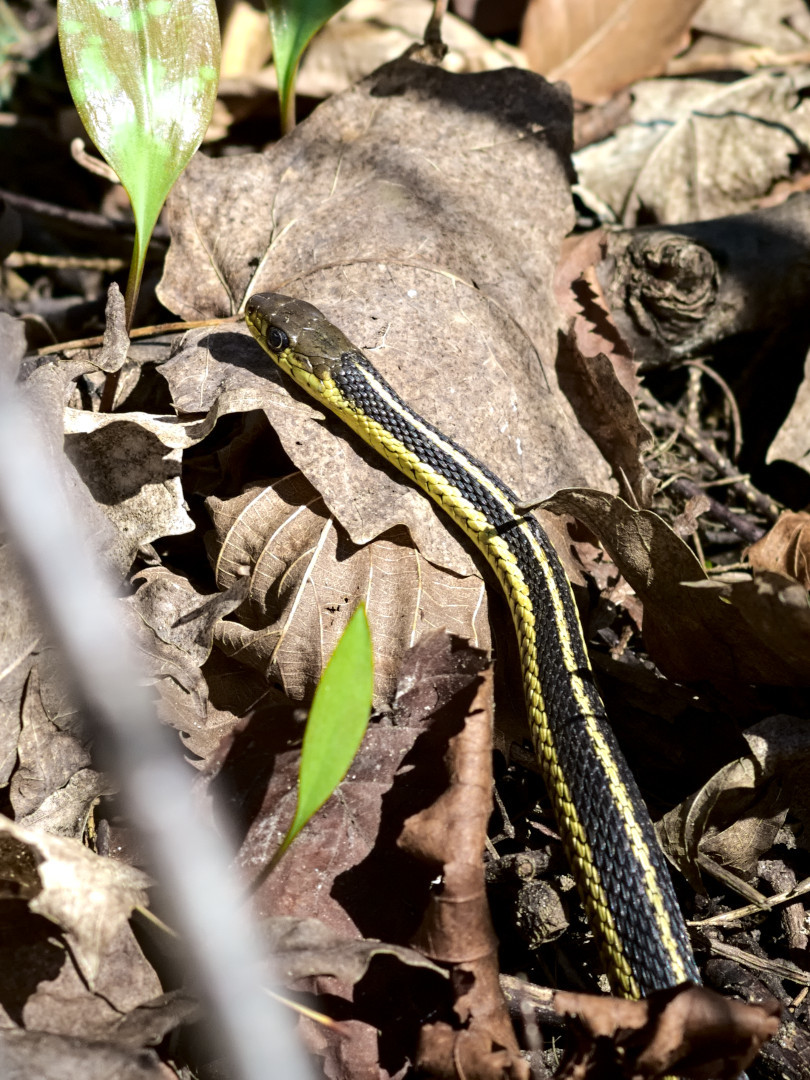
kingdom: Animalia
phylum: Chordata
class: Squamata
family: Colubridae
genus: Thamnophis
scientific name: Thamnophis sirtalis
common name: Common garter snake
